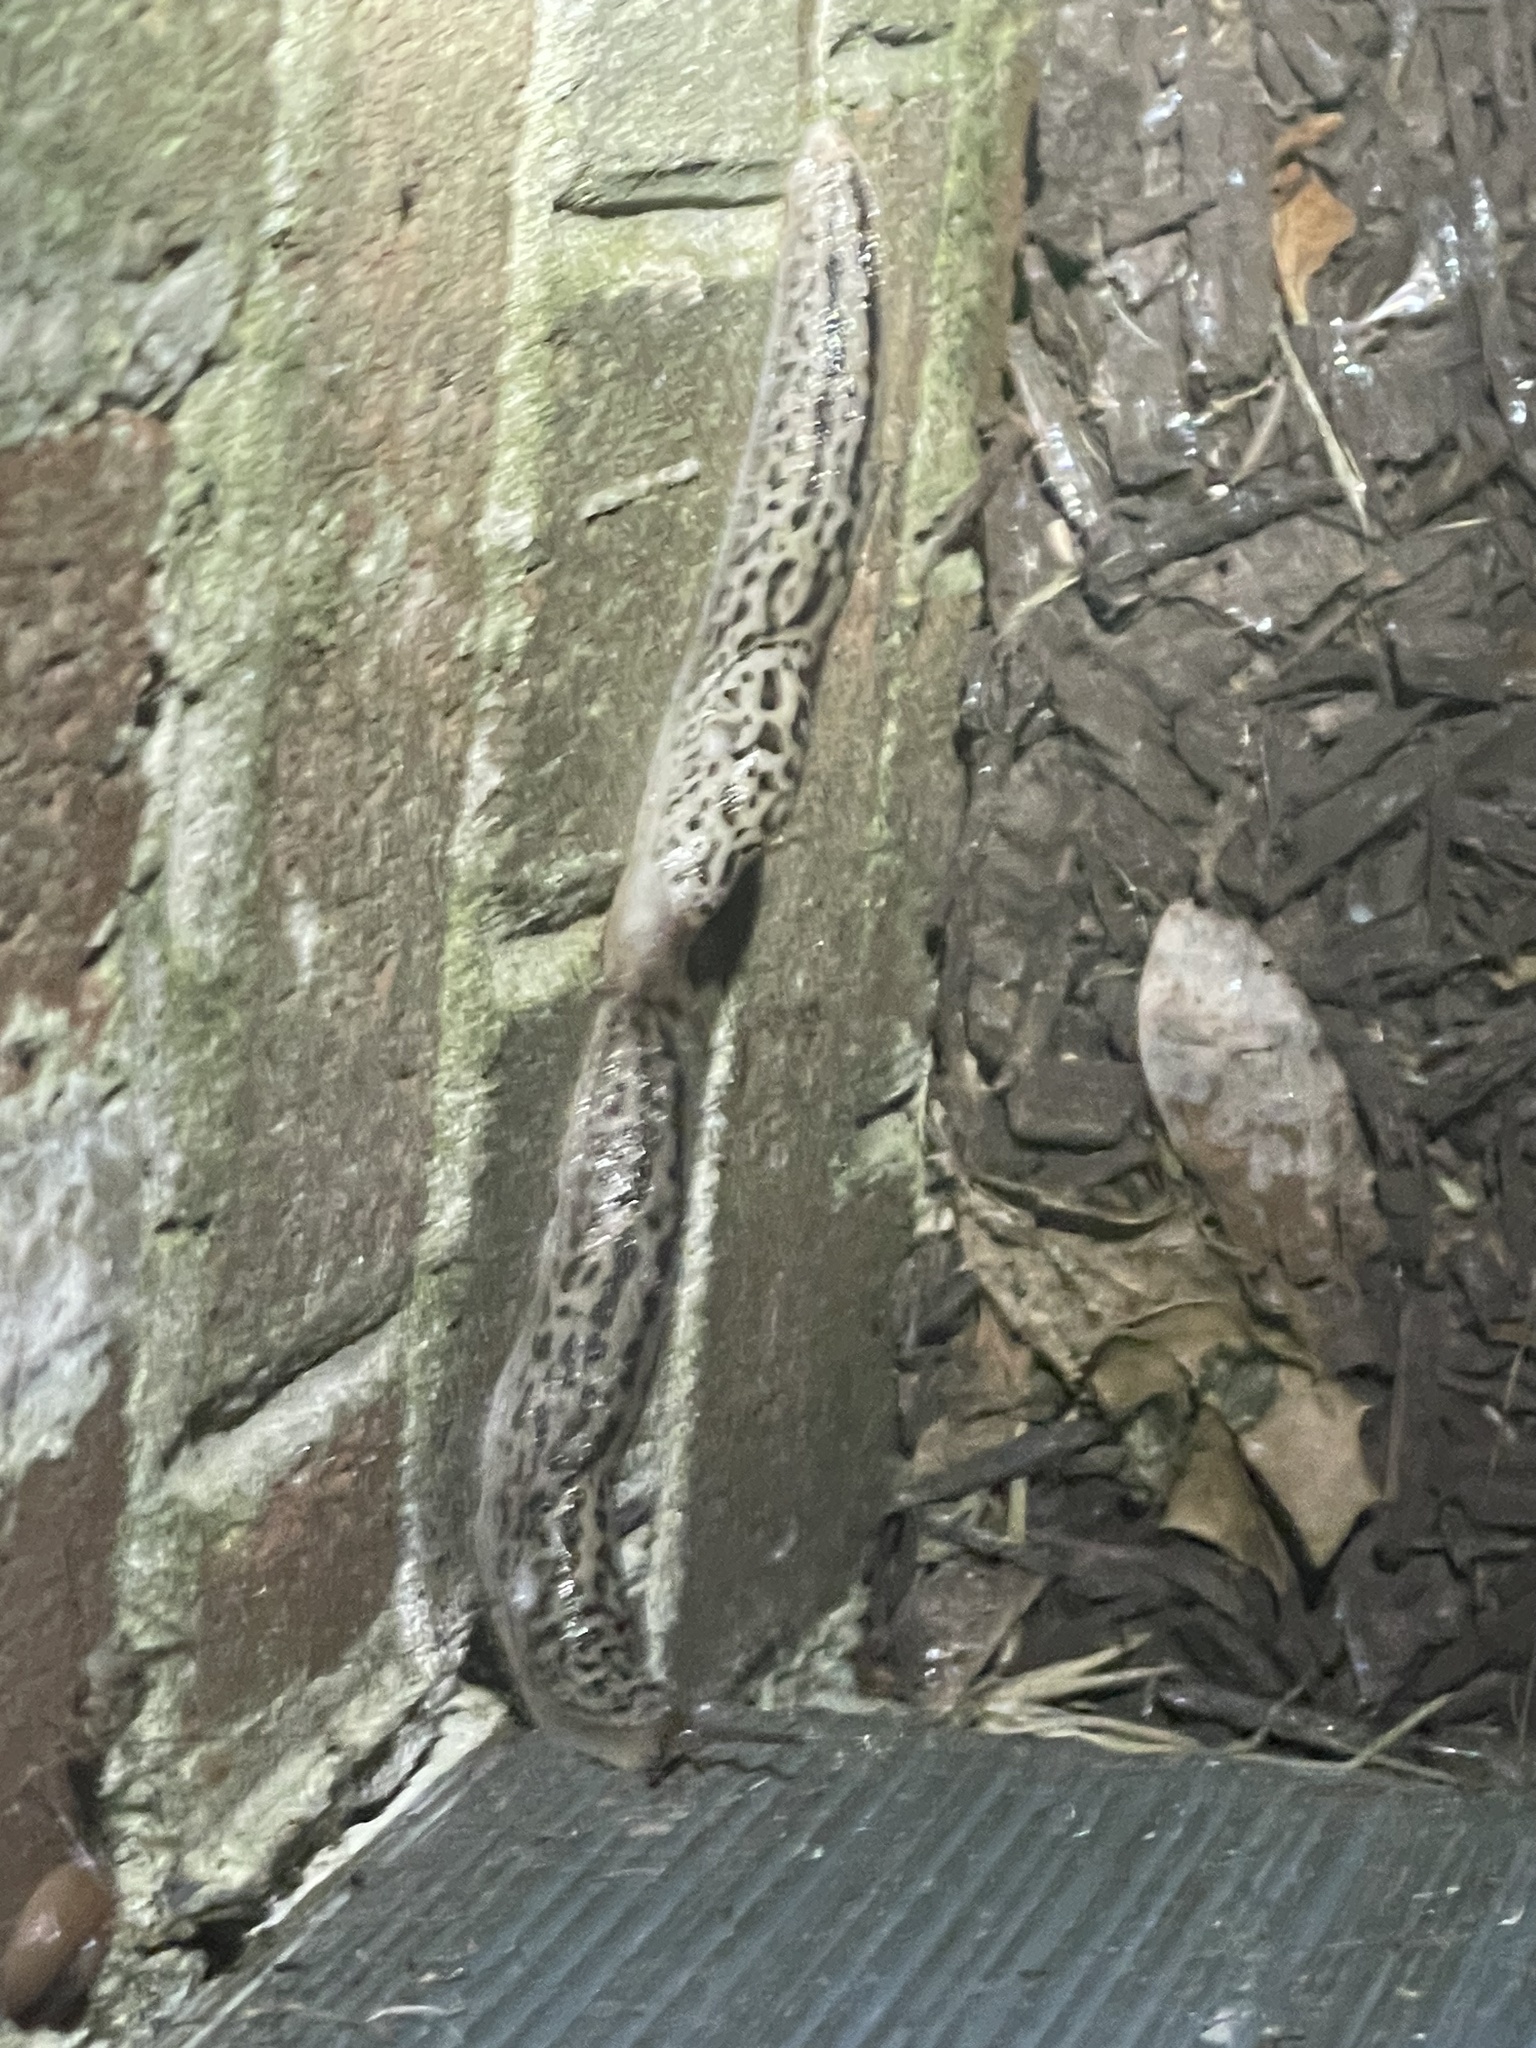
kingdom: Animalia
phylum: Mollusca
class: Gastropoda
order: Stylommatophora
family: Limacidae
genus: Limax
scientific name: Limax maximus
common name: Great grey slug
